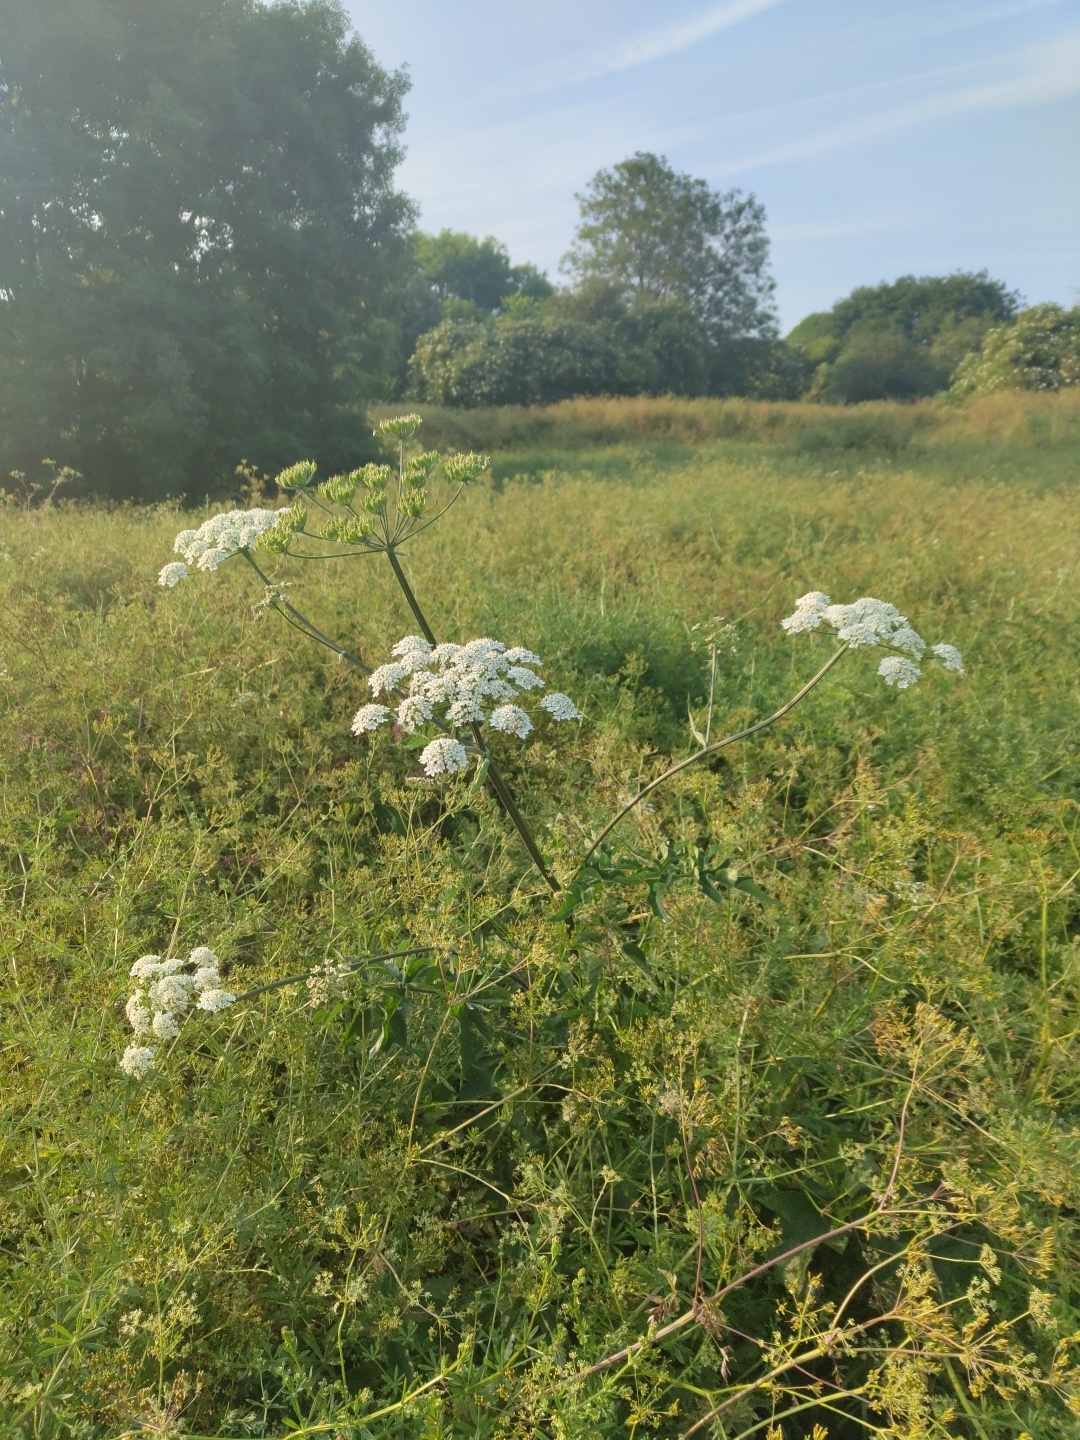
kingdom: Plantae
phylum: Tracheophyta
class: Magnoliopsida
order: Apiales
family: Apiaceae
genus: Heracleum
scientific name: Heracleum sphondylium
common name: Hogweed
